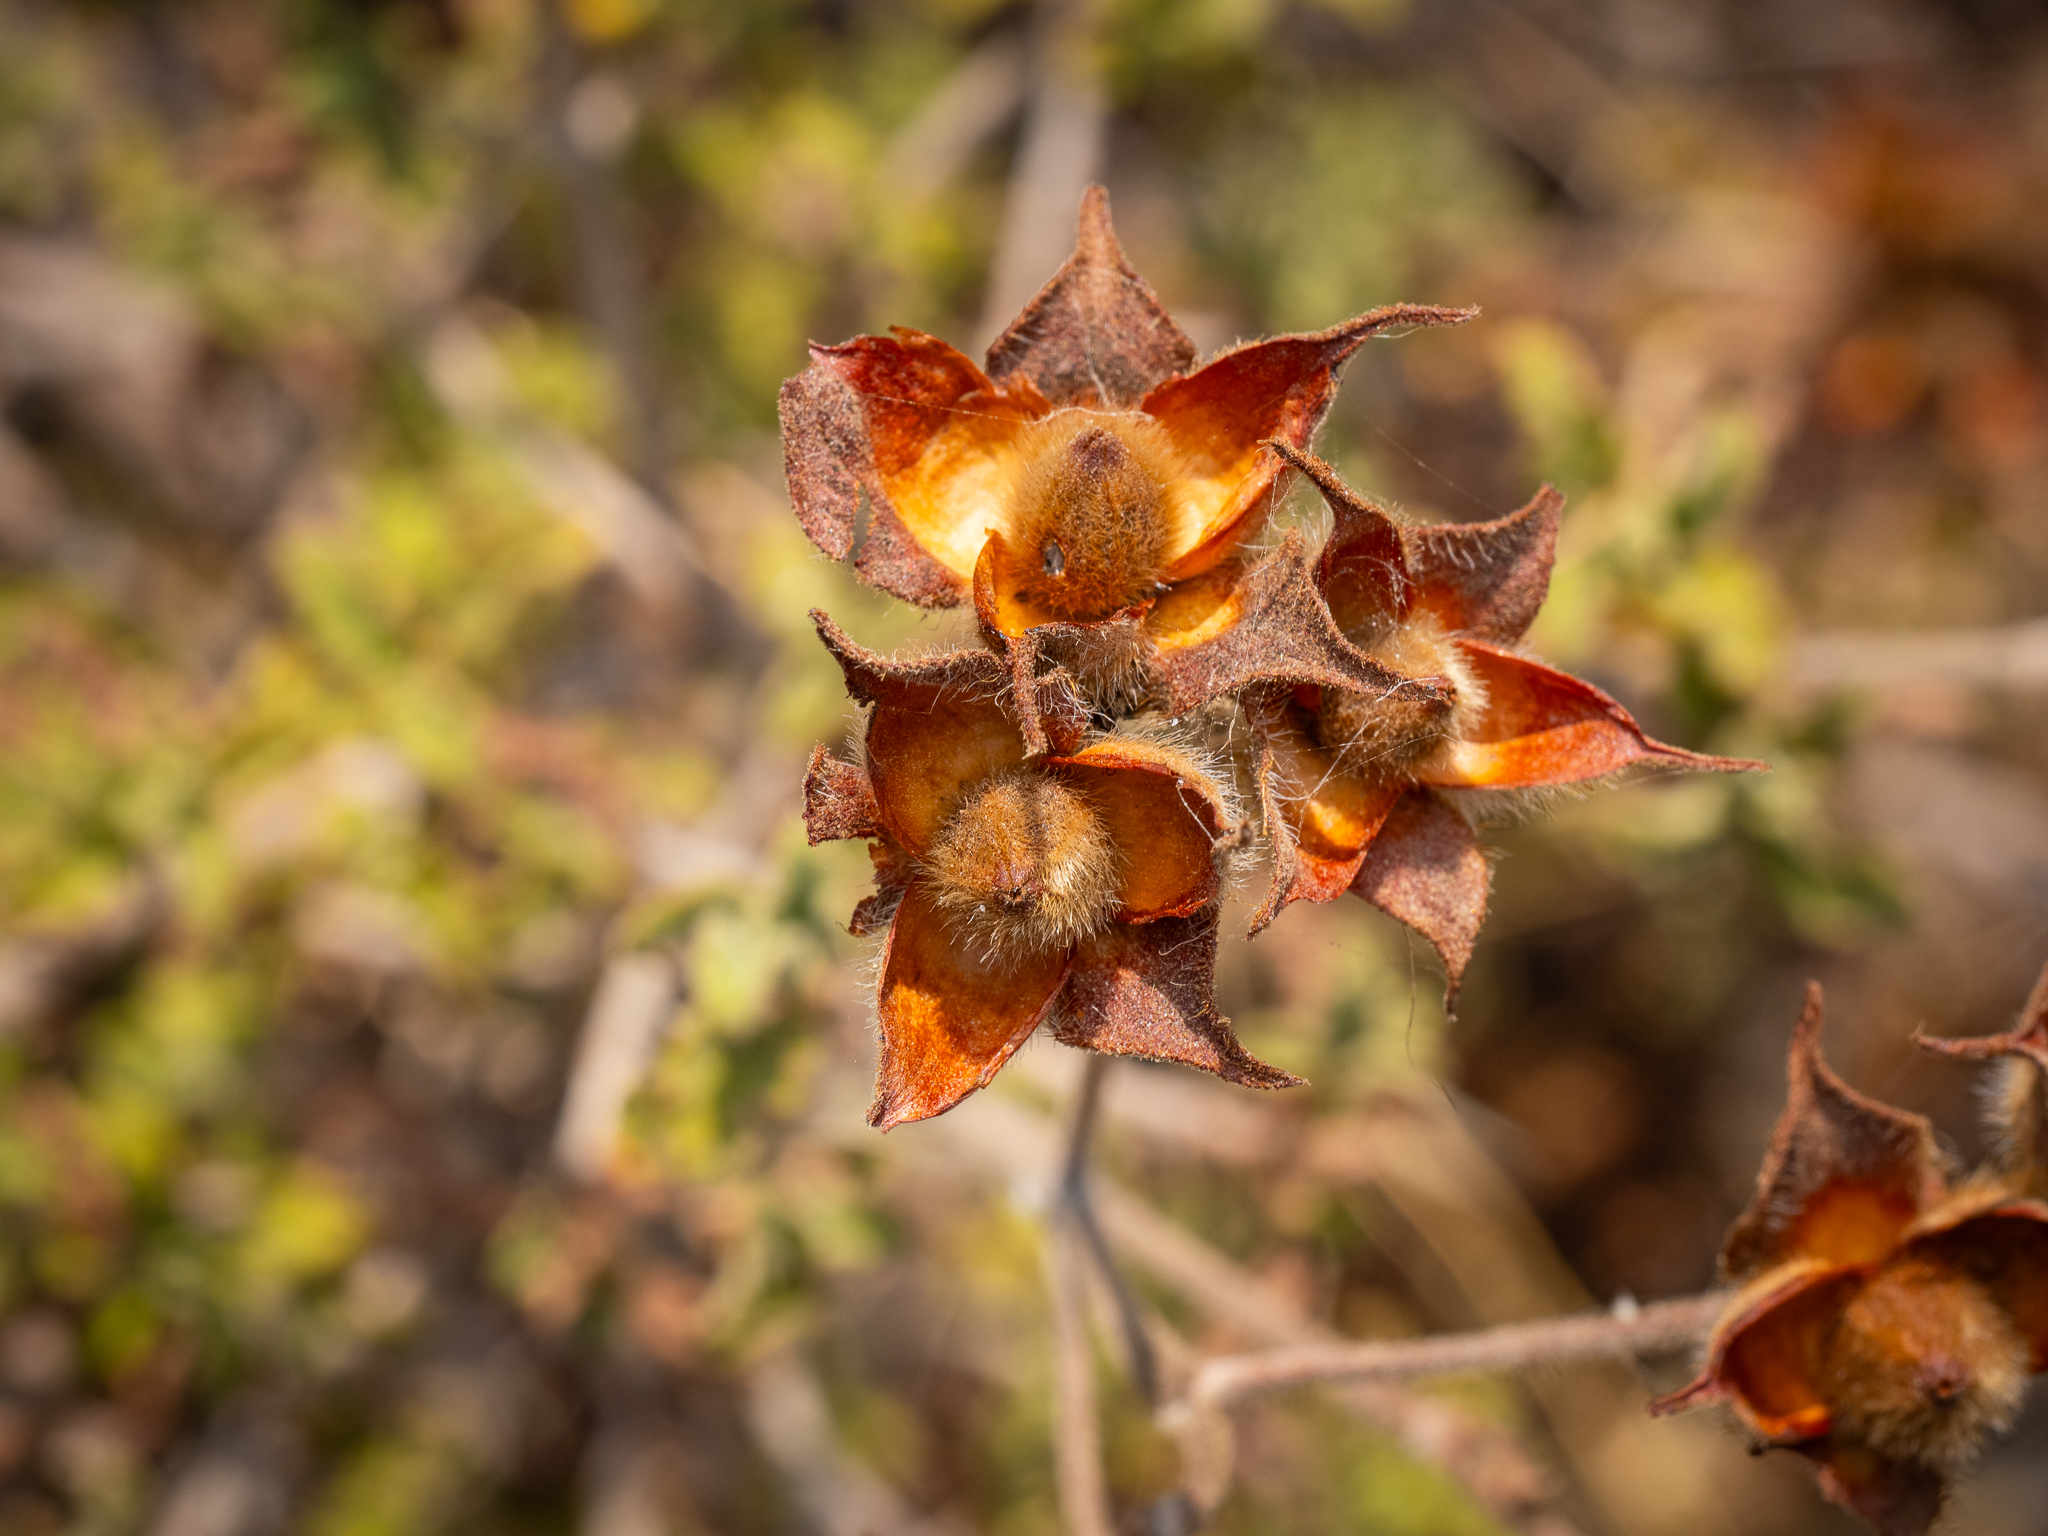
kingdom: Plantae
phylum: Tracheophyta
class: Magnoliopsida
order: Malvales
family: Cistaceae
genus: Cistus
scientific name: Cistus creticus
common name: Cretan rockrose
